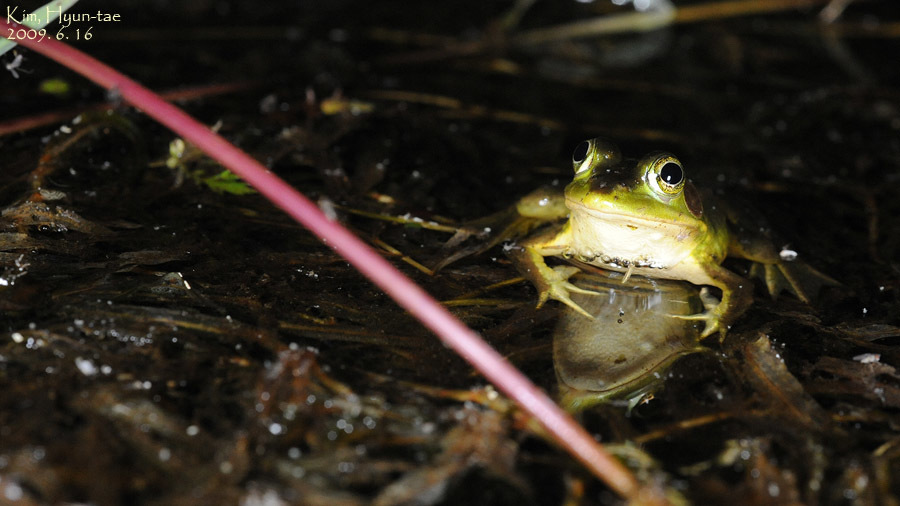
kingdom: Animalia
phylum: Chordata
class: Amphibia
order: Anura
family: Ranidae
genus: Pelophylax
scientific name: Pelophylax chosenicus
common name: Gold-spotted pond frog
